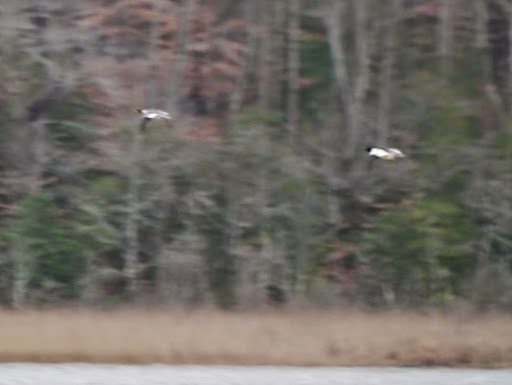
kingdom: Animalia
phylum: Chordata
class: Aves
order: Anseriformes
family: Anatidae
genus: Mergus
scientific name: Mergus merganser
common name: Common merganser
